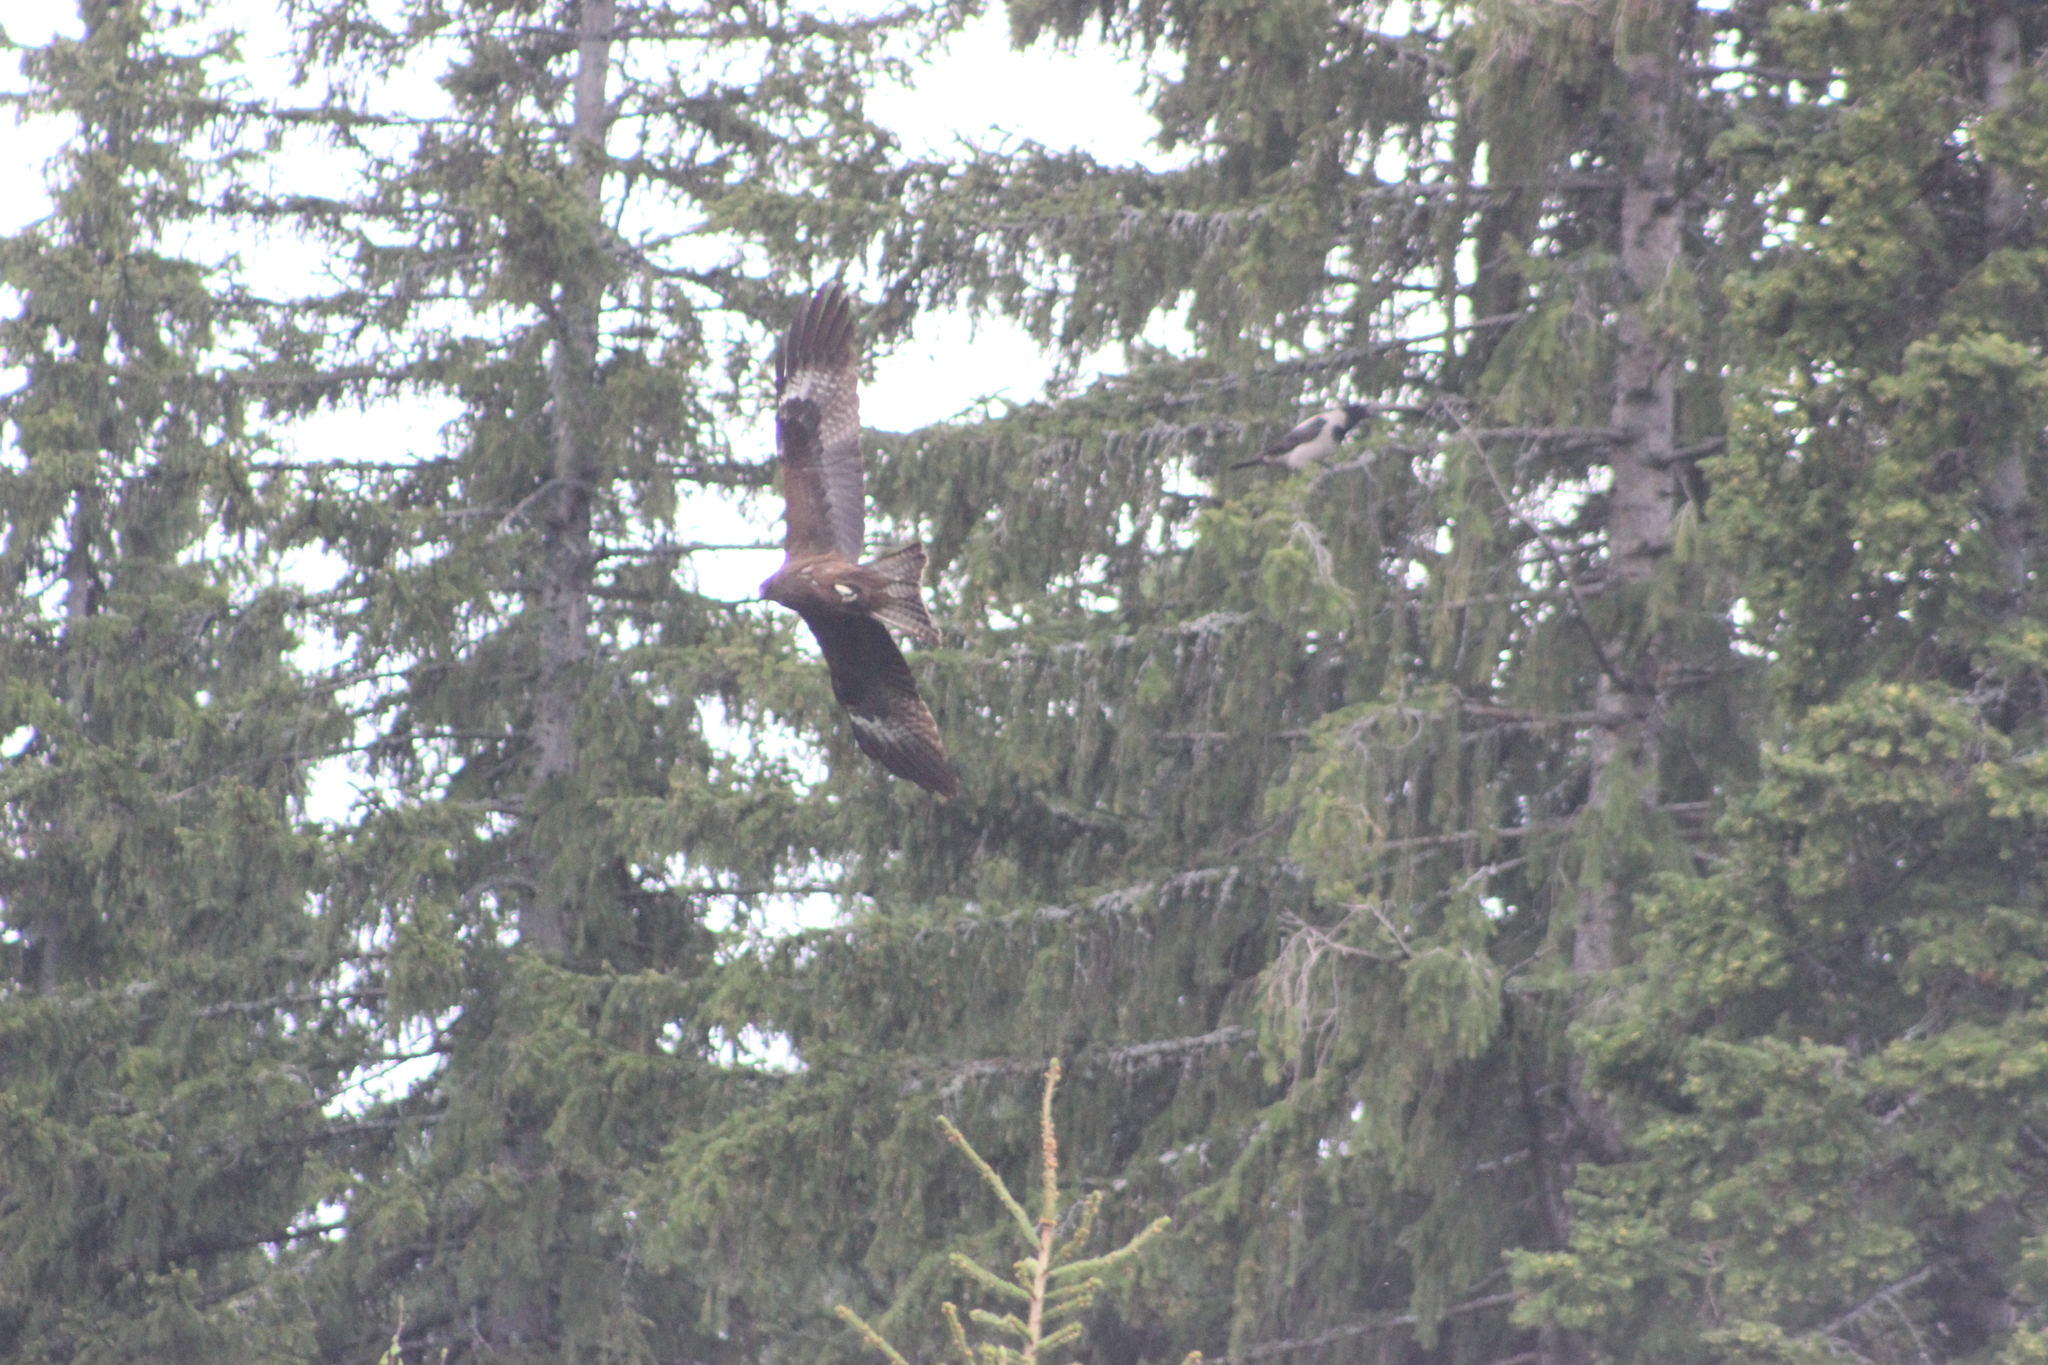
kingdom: Animalia
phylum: Chordata
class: Aves
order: Accipitriformes
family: Accipitridae
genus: Milvus
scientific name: Milvus migrans
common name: Black kite
